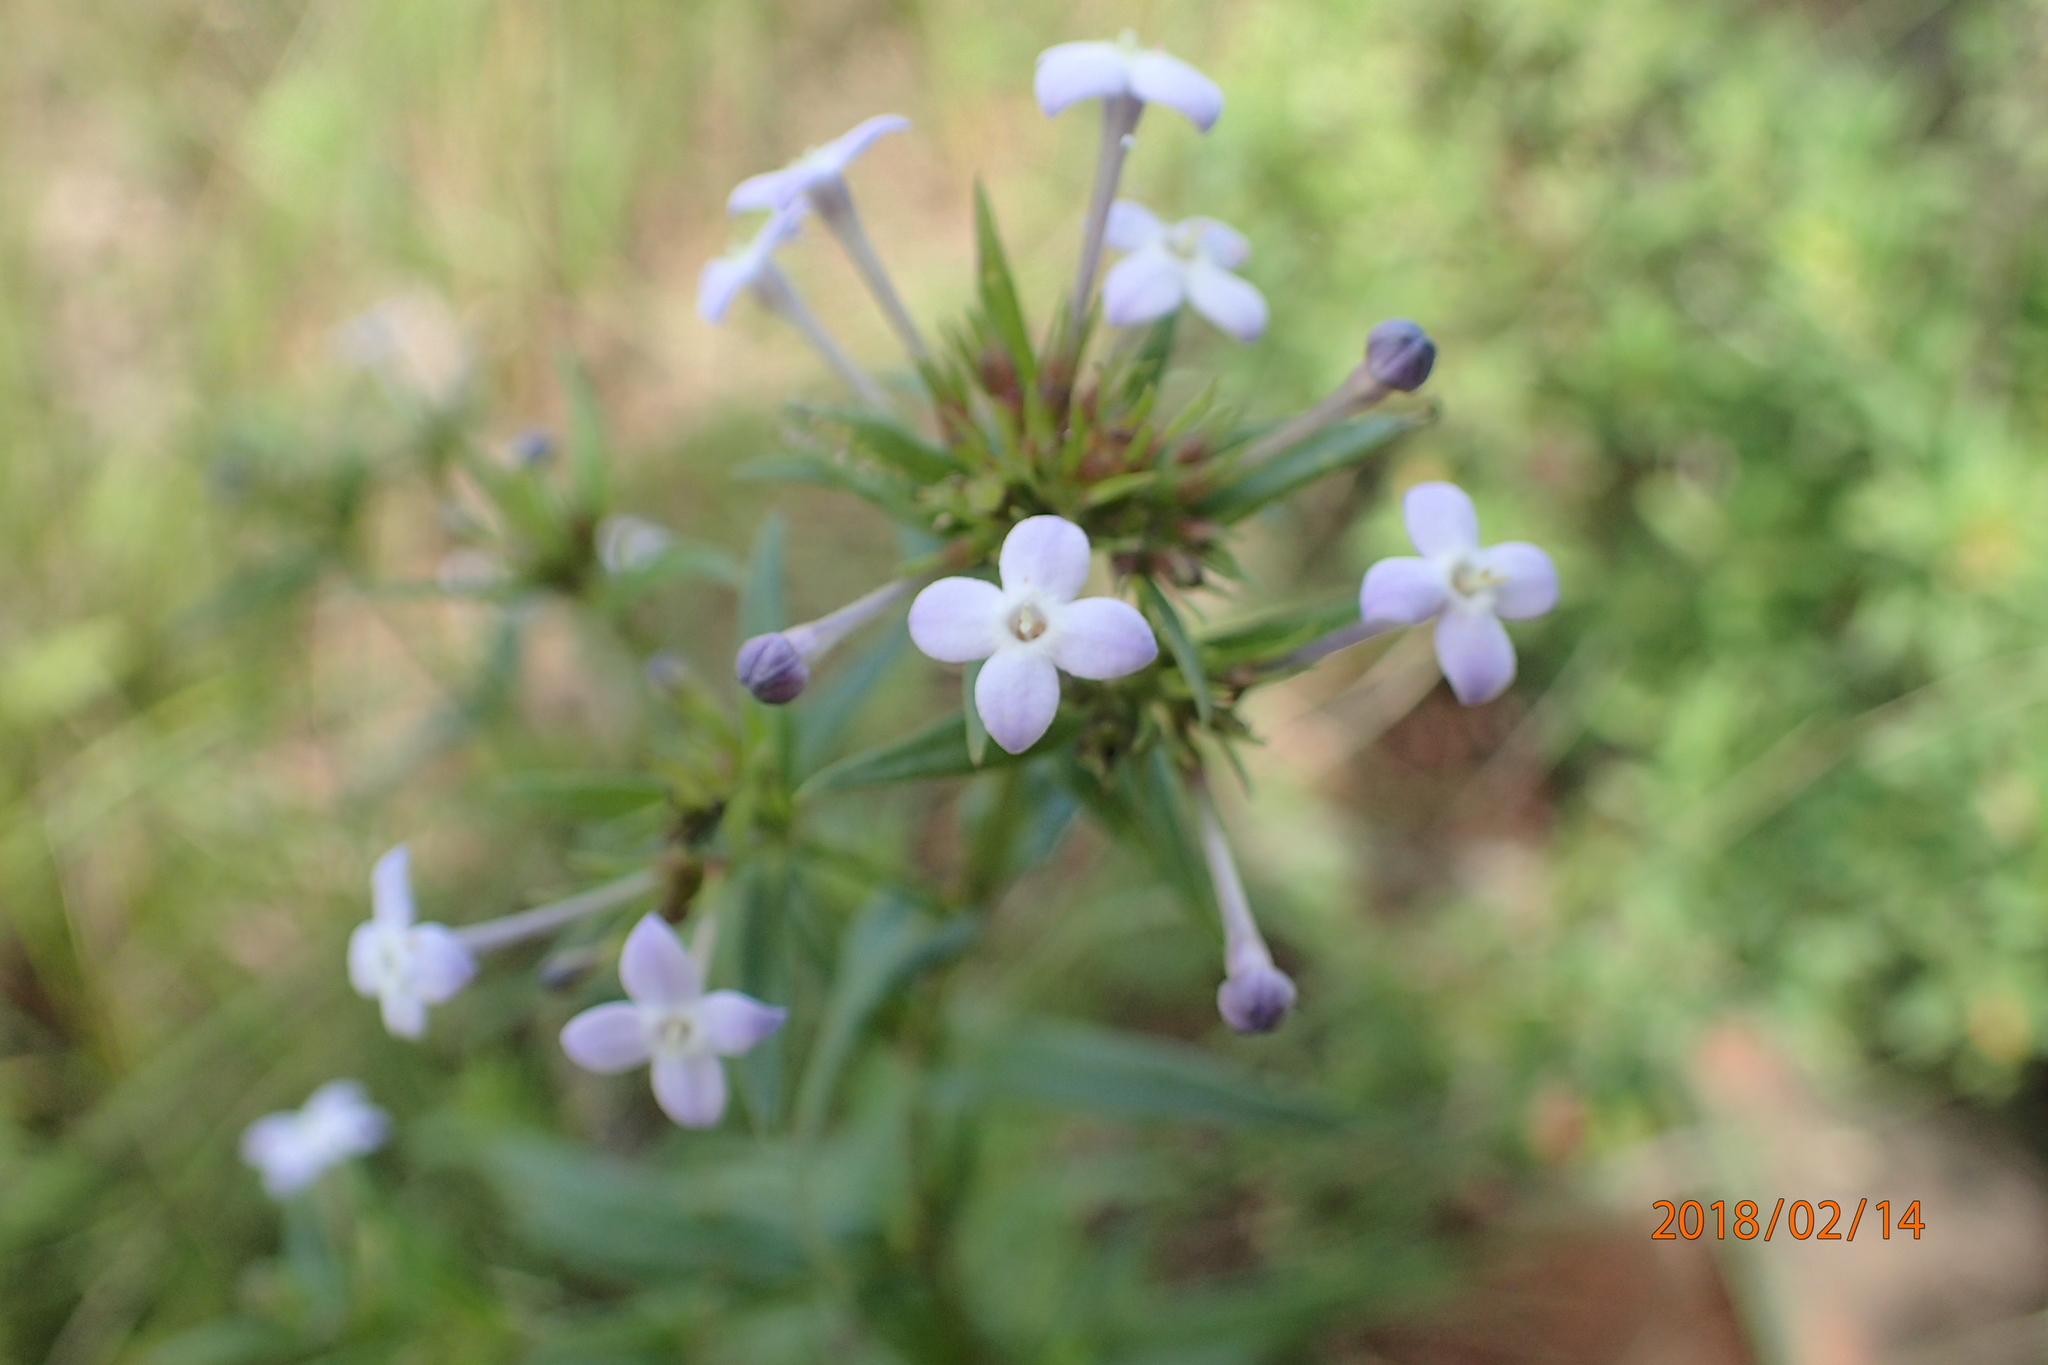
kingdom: Plantae
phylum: Tracheophyta
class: Magnoliopsida
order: Gentianales
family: Rubiaceae
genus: Conostomium
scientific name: Conostomium natalense
